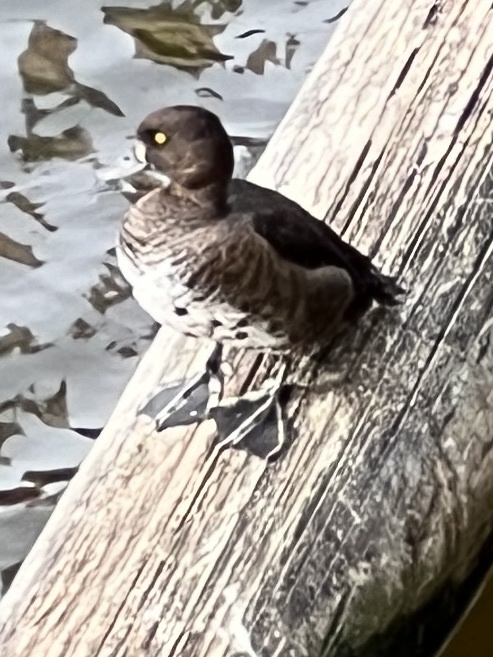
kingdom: Animalia
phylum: Chordata
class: Aves
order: Anseriformes
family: Anatidae
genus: Aythya
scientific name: Aythya fuligula
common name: Tufted duck
